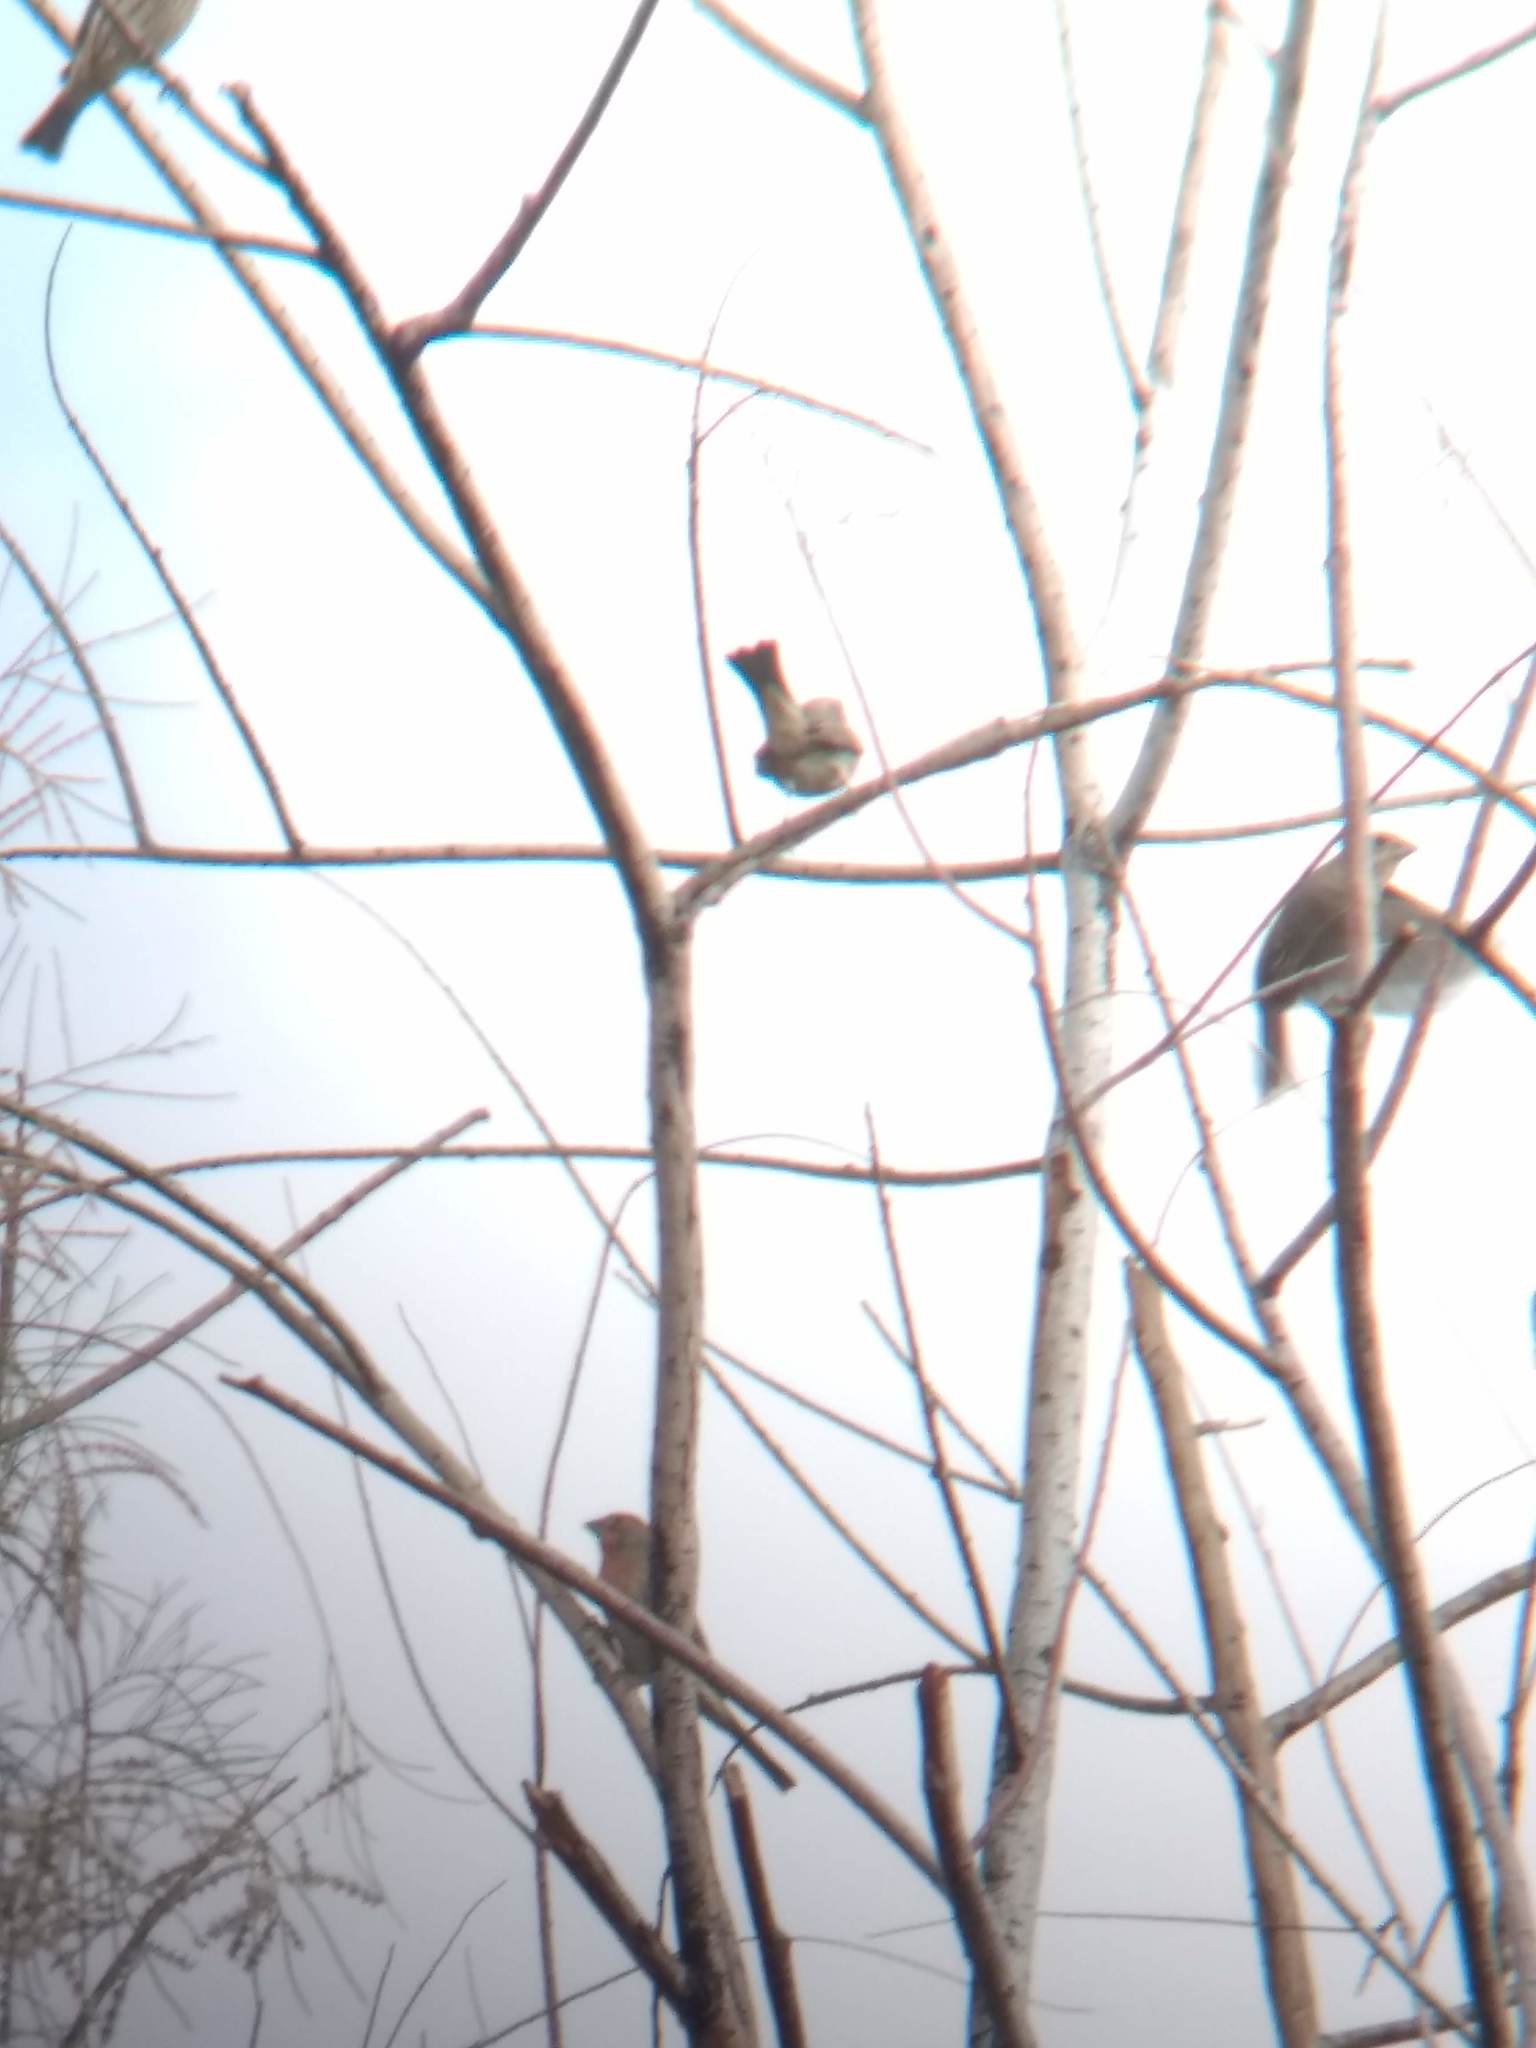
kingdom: Animalia
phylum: Chordata
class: Aves
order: Passeriformes
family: Fringillidae
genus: Haemorhous
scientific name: Haemorhous mexicanus
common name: House finch
